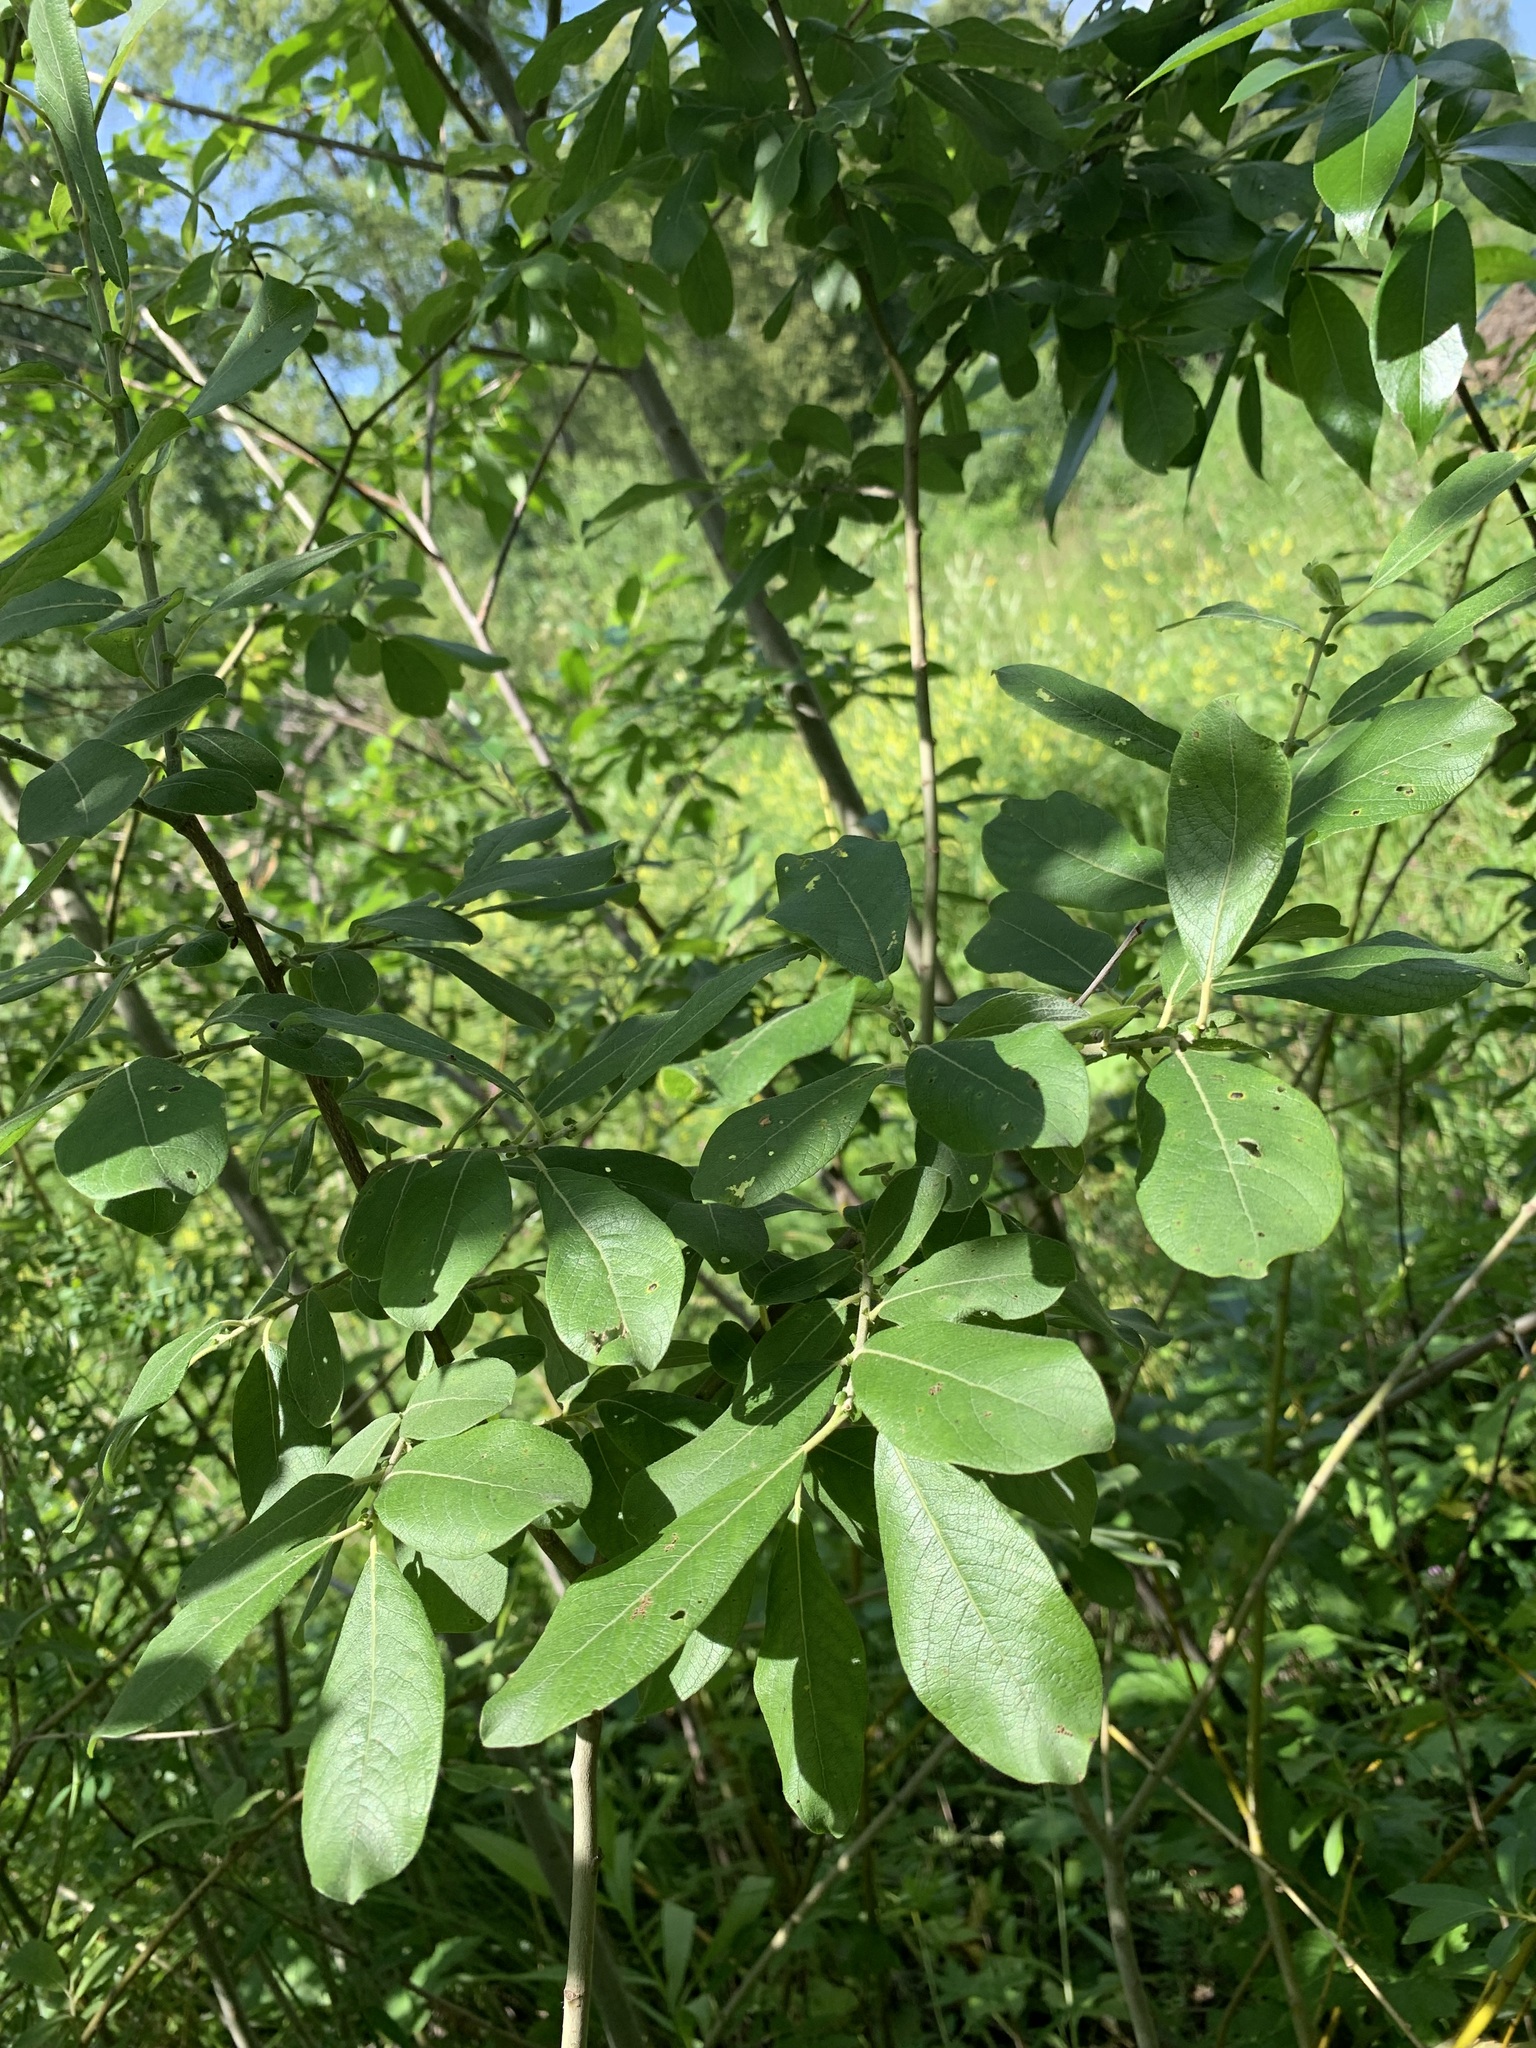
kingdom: Plantae
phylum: Tracheophyta
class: Magnoliopsida
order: Malpighiales
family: Salicaceae
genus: Salix
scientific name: Salix cinerea
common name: Common sallow
